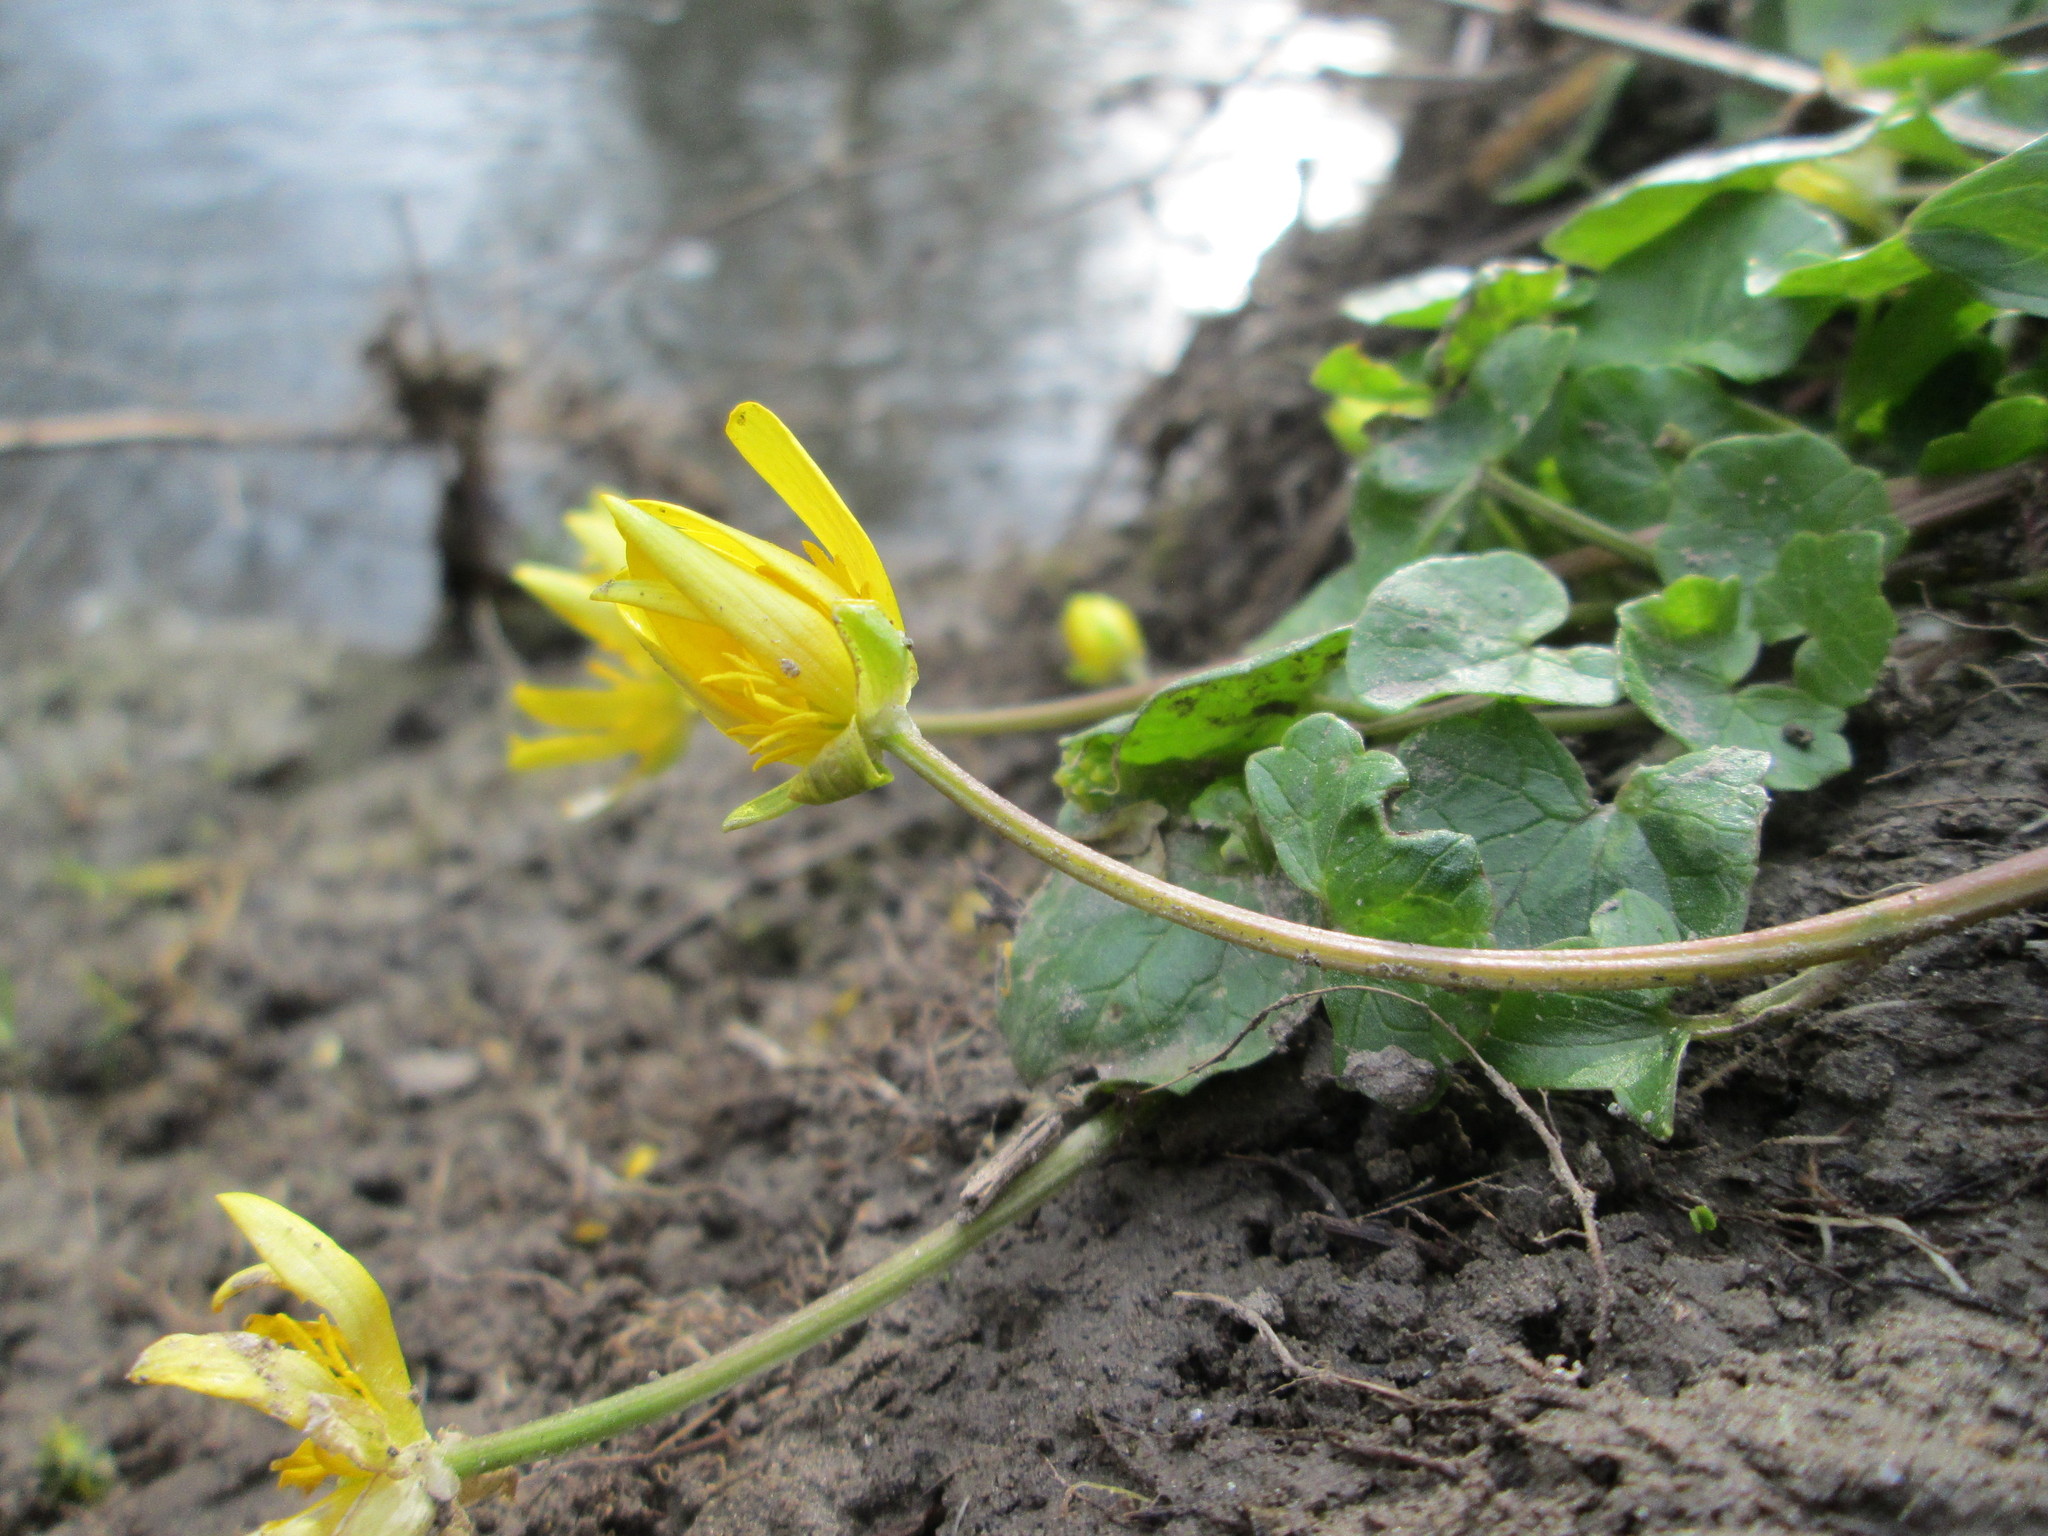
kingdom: Plantae
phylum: Tracheophyta
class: Magnoliopsida
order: Ranunculales
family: Ranunculaceae
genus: Ficaria
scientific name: Ficaria verna
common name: Lesser celandine
